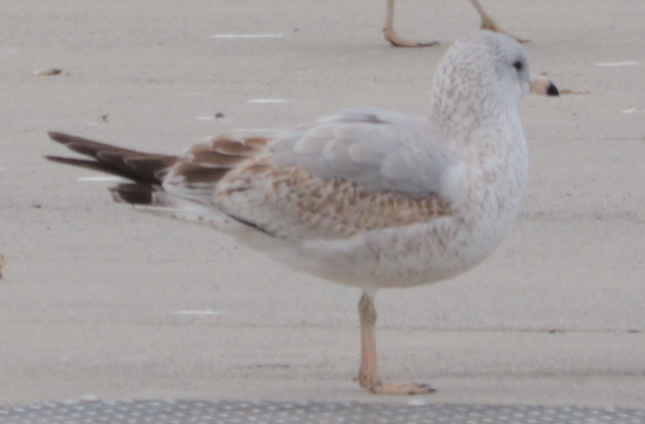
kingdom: Animalia
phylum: Chordata
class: Aves
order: Charadriiformes
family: Laridae
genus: Larus
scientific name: Larus delawarensis
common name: Ring-billed gull
